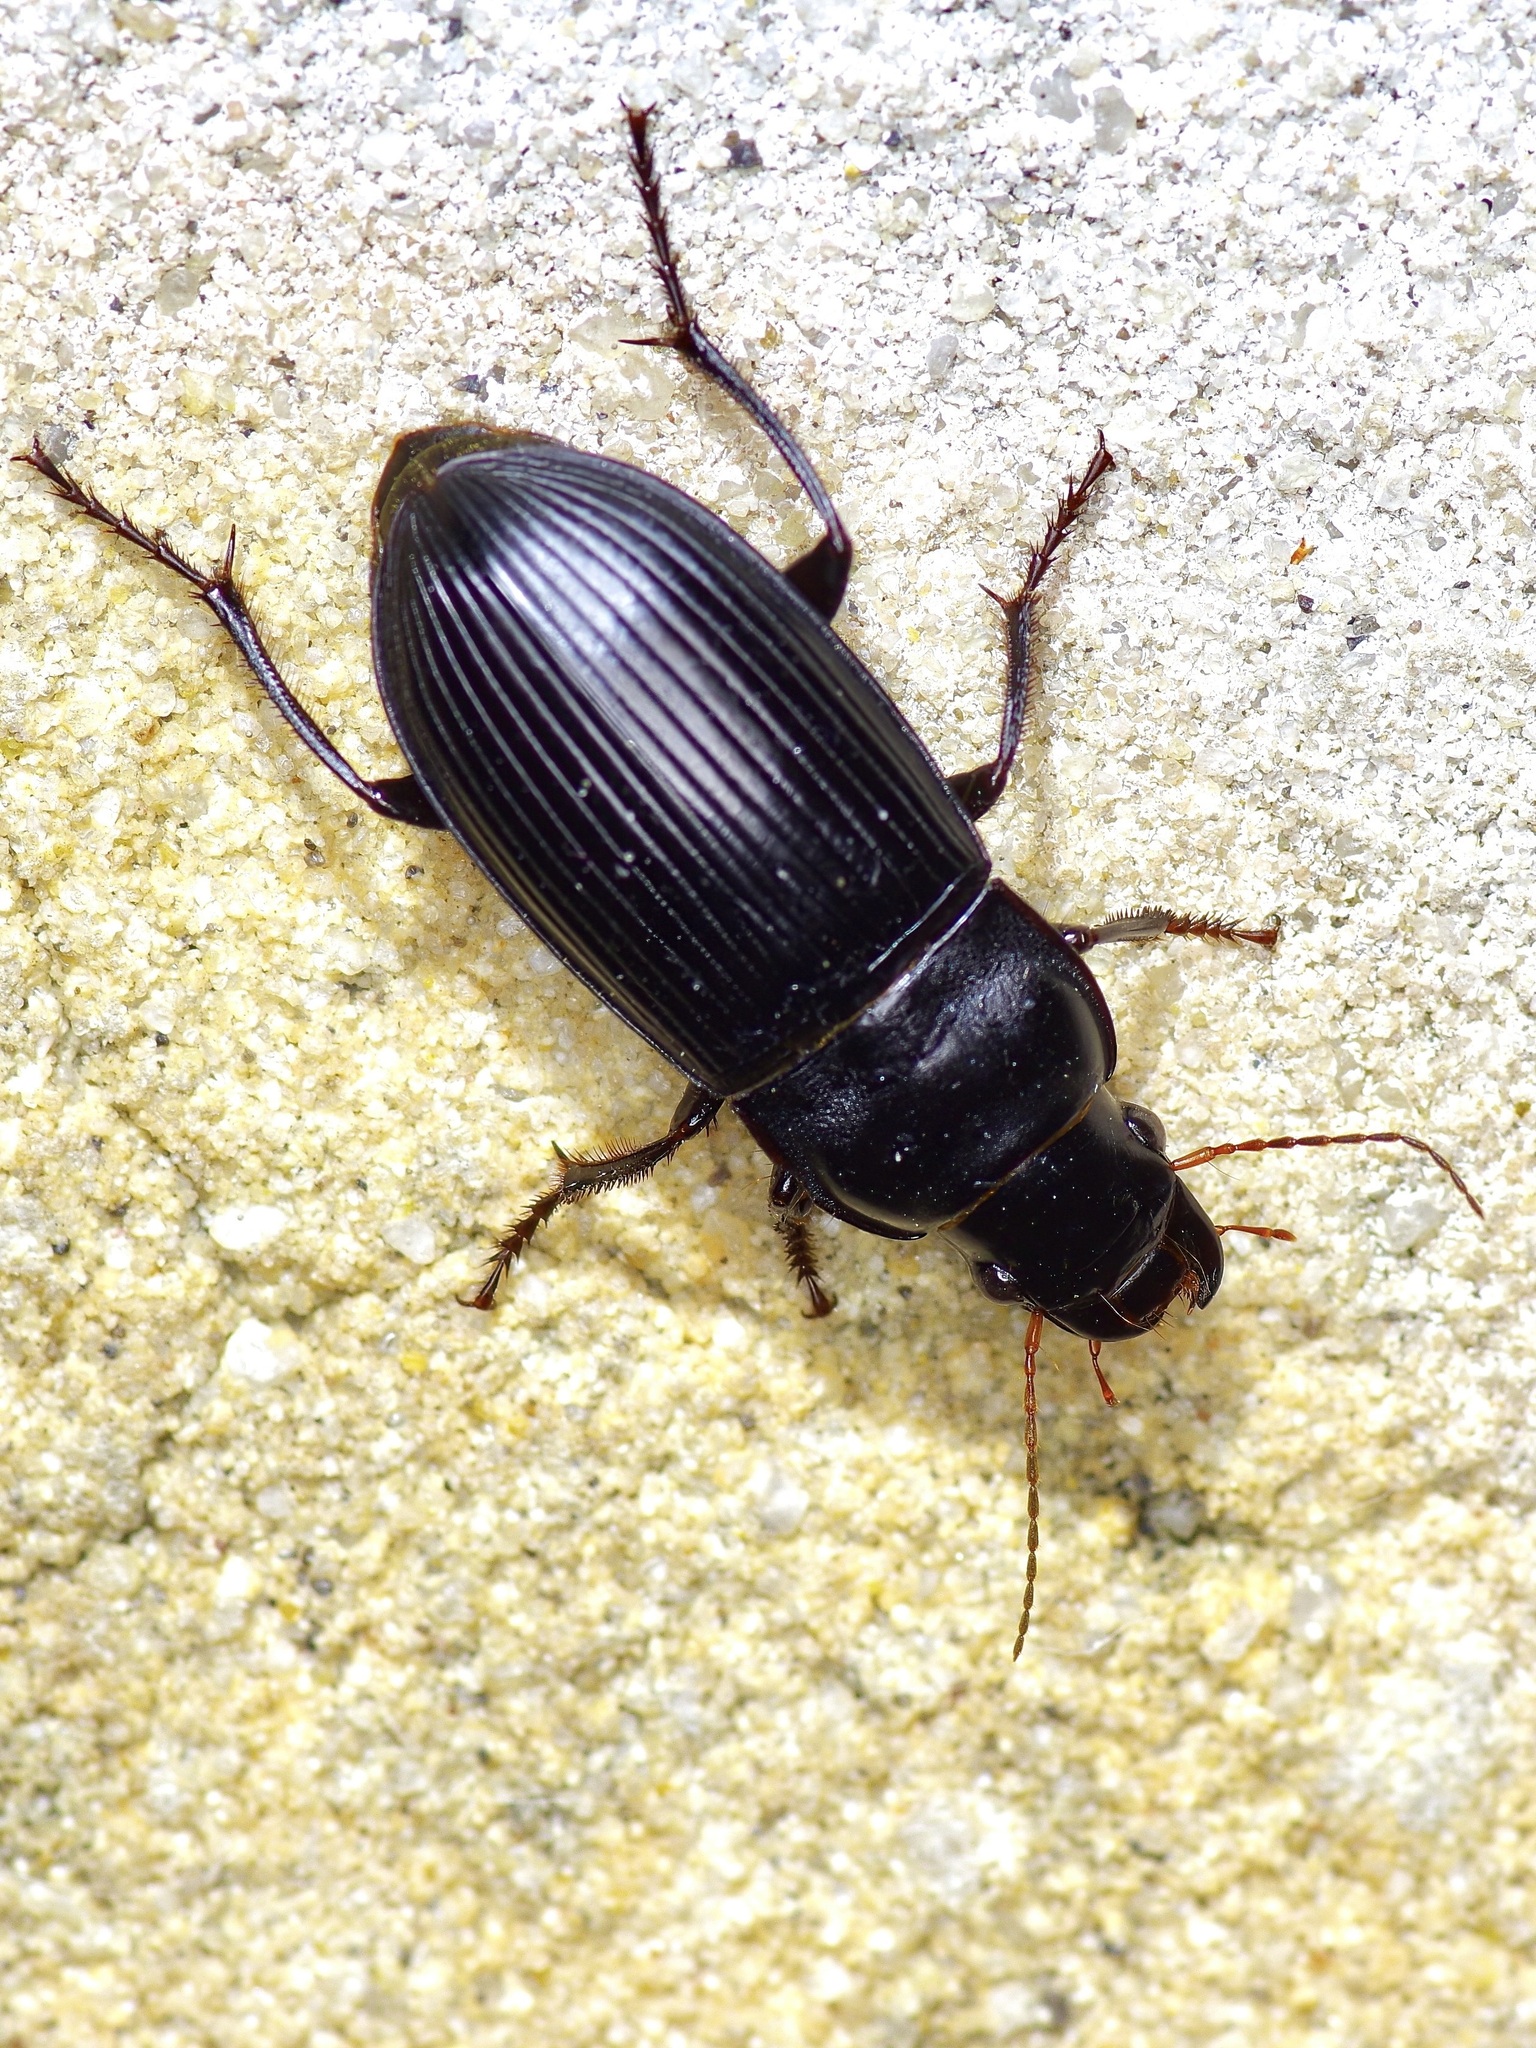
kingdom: Animalia
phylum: Arthropoda
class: Insecta
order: Coleoptera
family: Carabidae
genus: Harpalus
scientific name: Harpalus caliginosus
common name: Murky ground beetle
